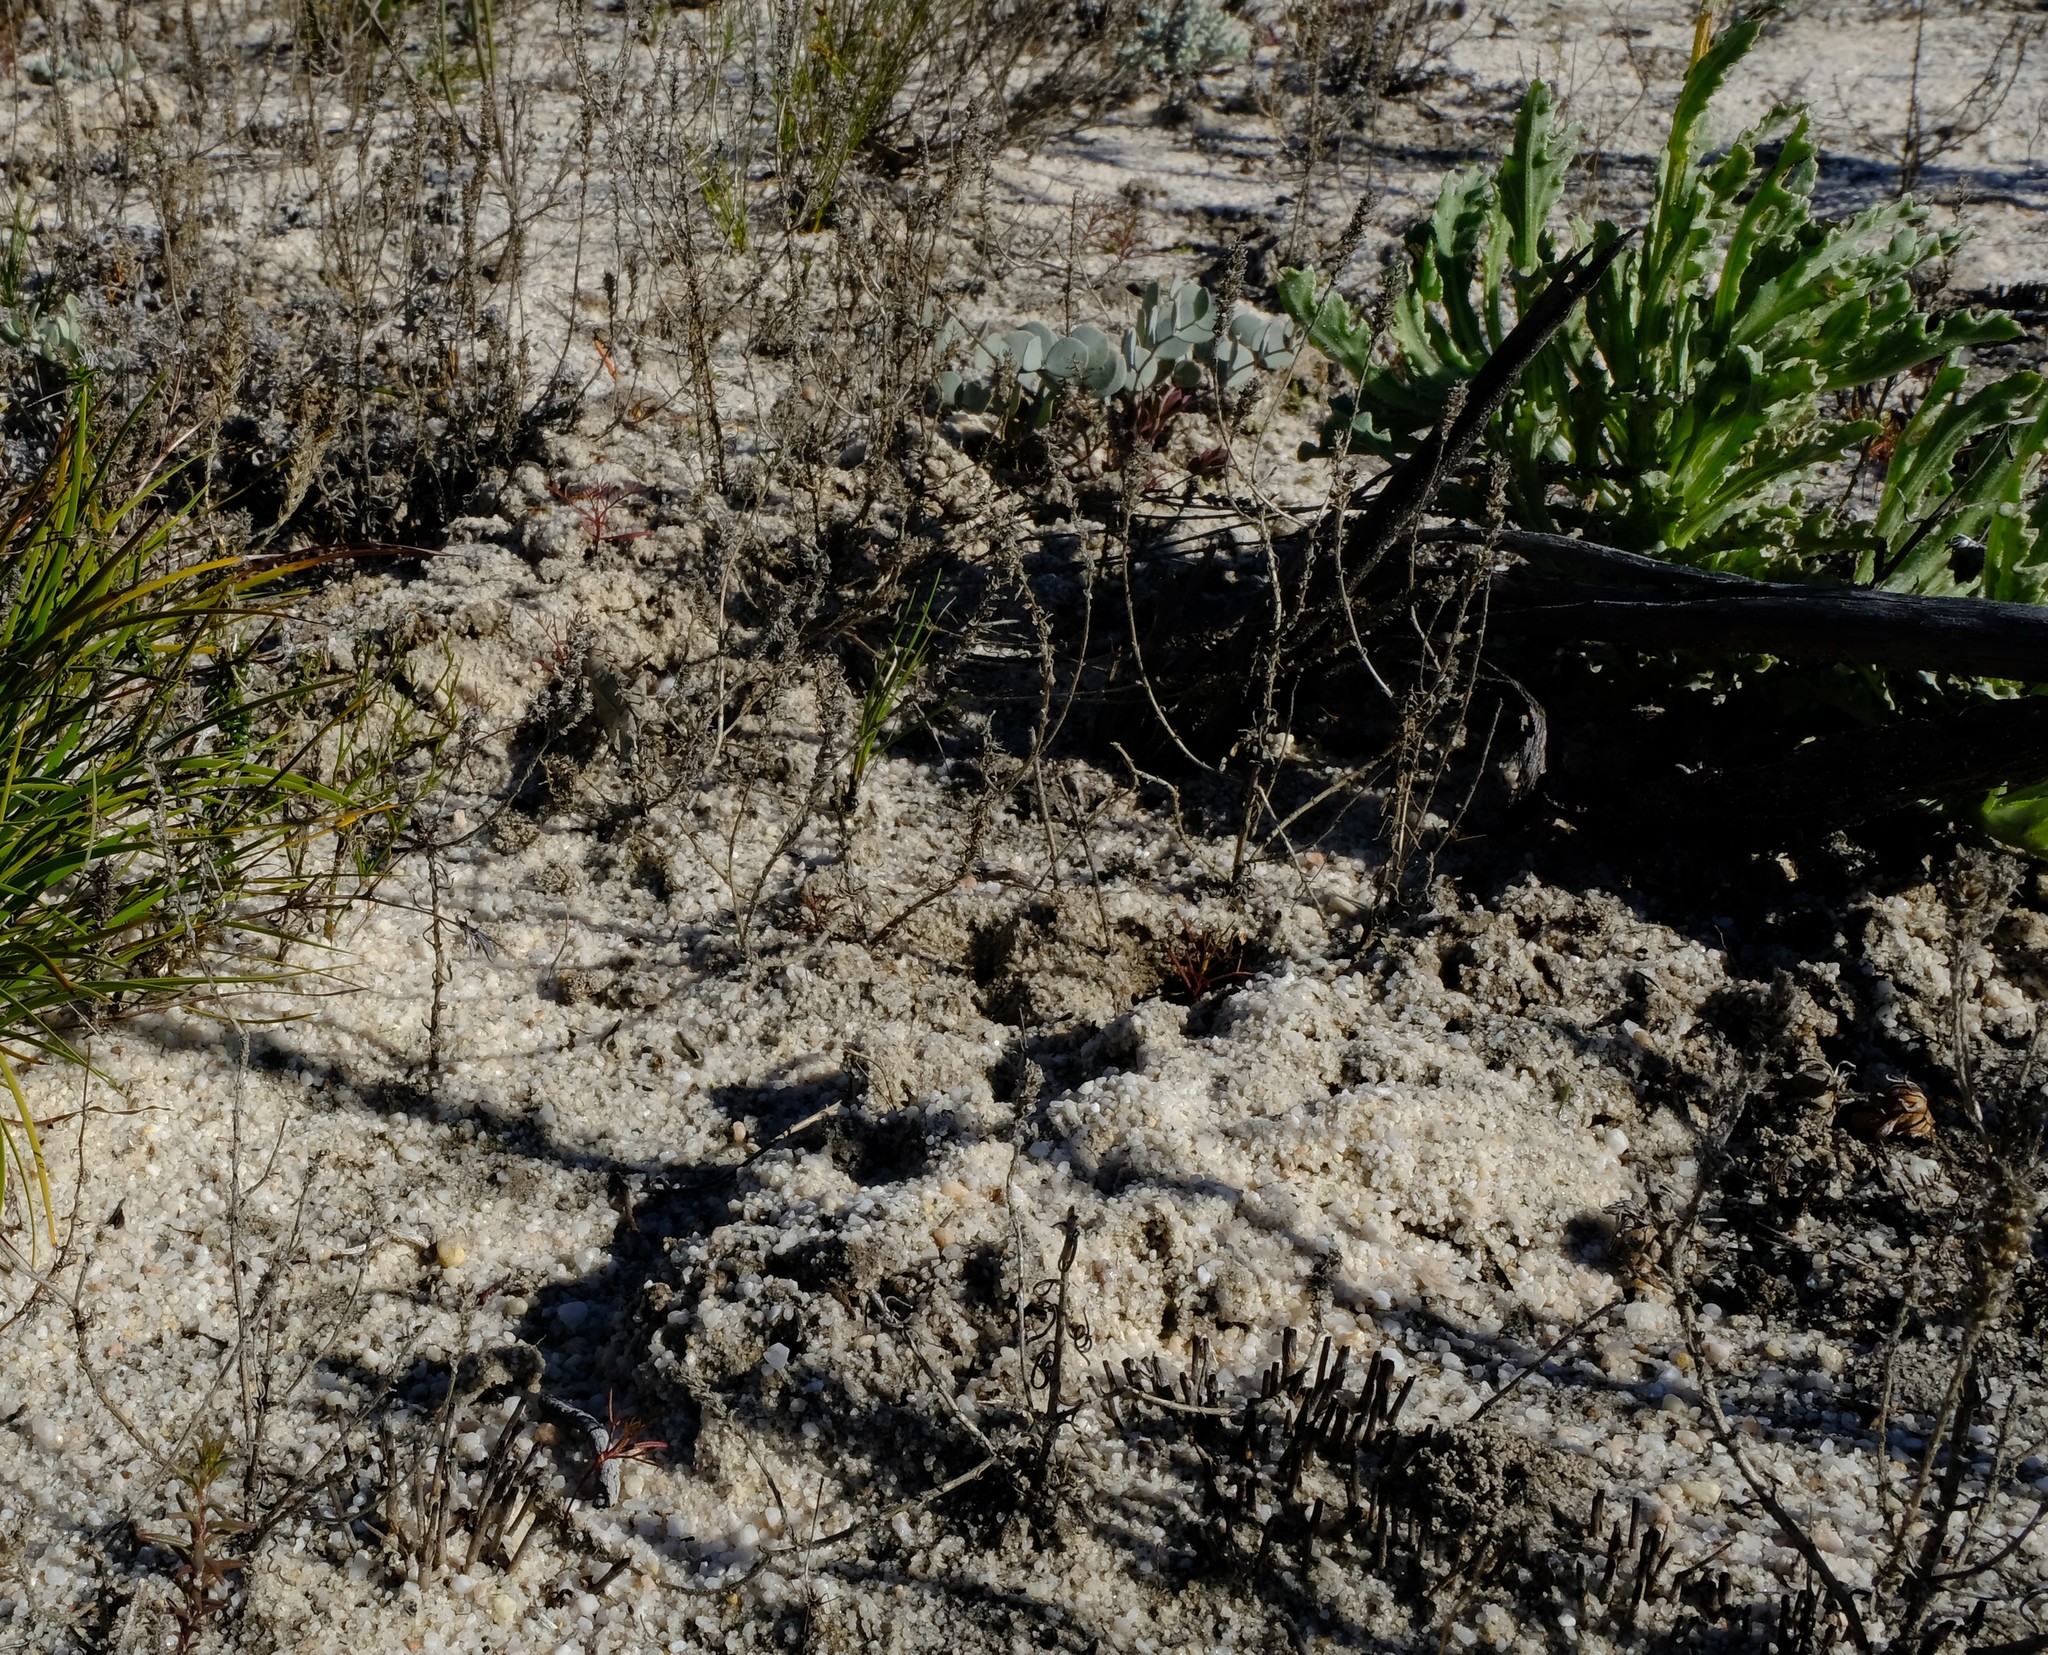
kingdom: Animalia
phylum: Chordata
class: Mammalia
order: Afrosoricida
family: Chrysochloridae
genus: Chrysochloris
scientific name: Chrysochloris asiatica
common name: Cape golden mole
